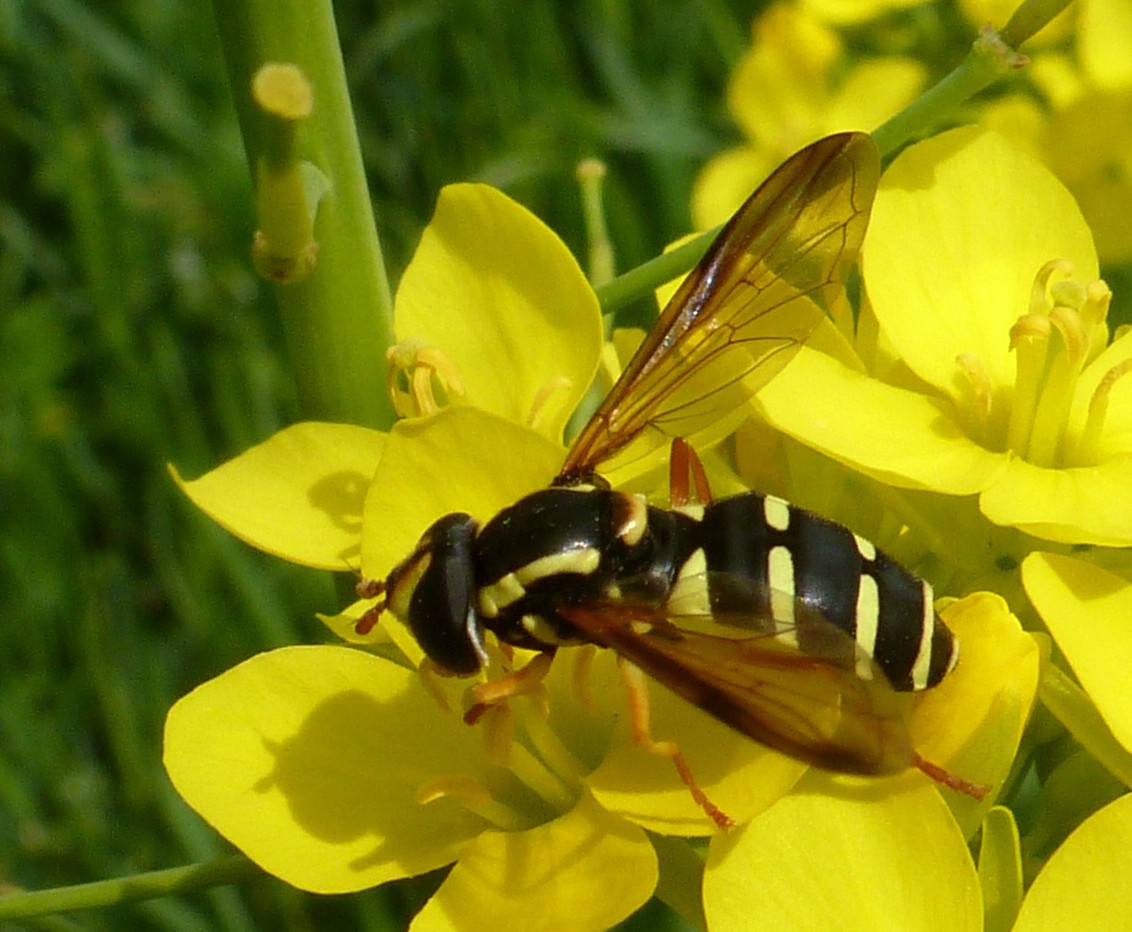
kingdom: Animalia
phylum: Arthropoda
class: Insecta
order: Diptera
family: Syrphidae
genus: Philhelius
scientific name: Philhelius citrofasciata
